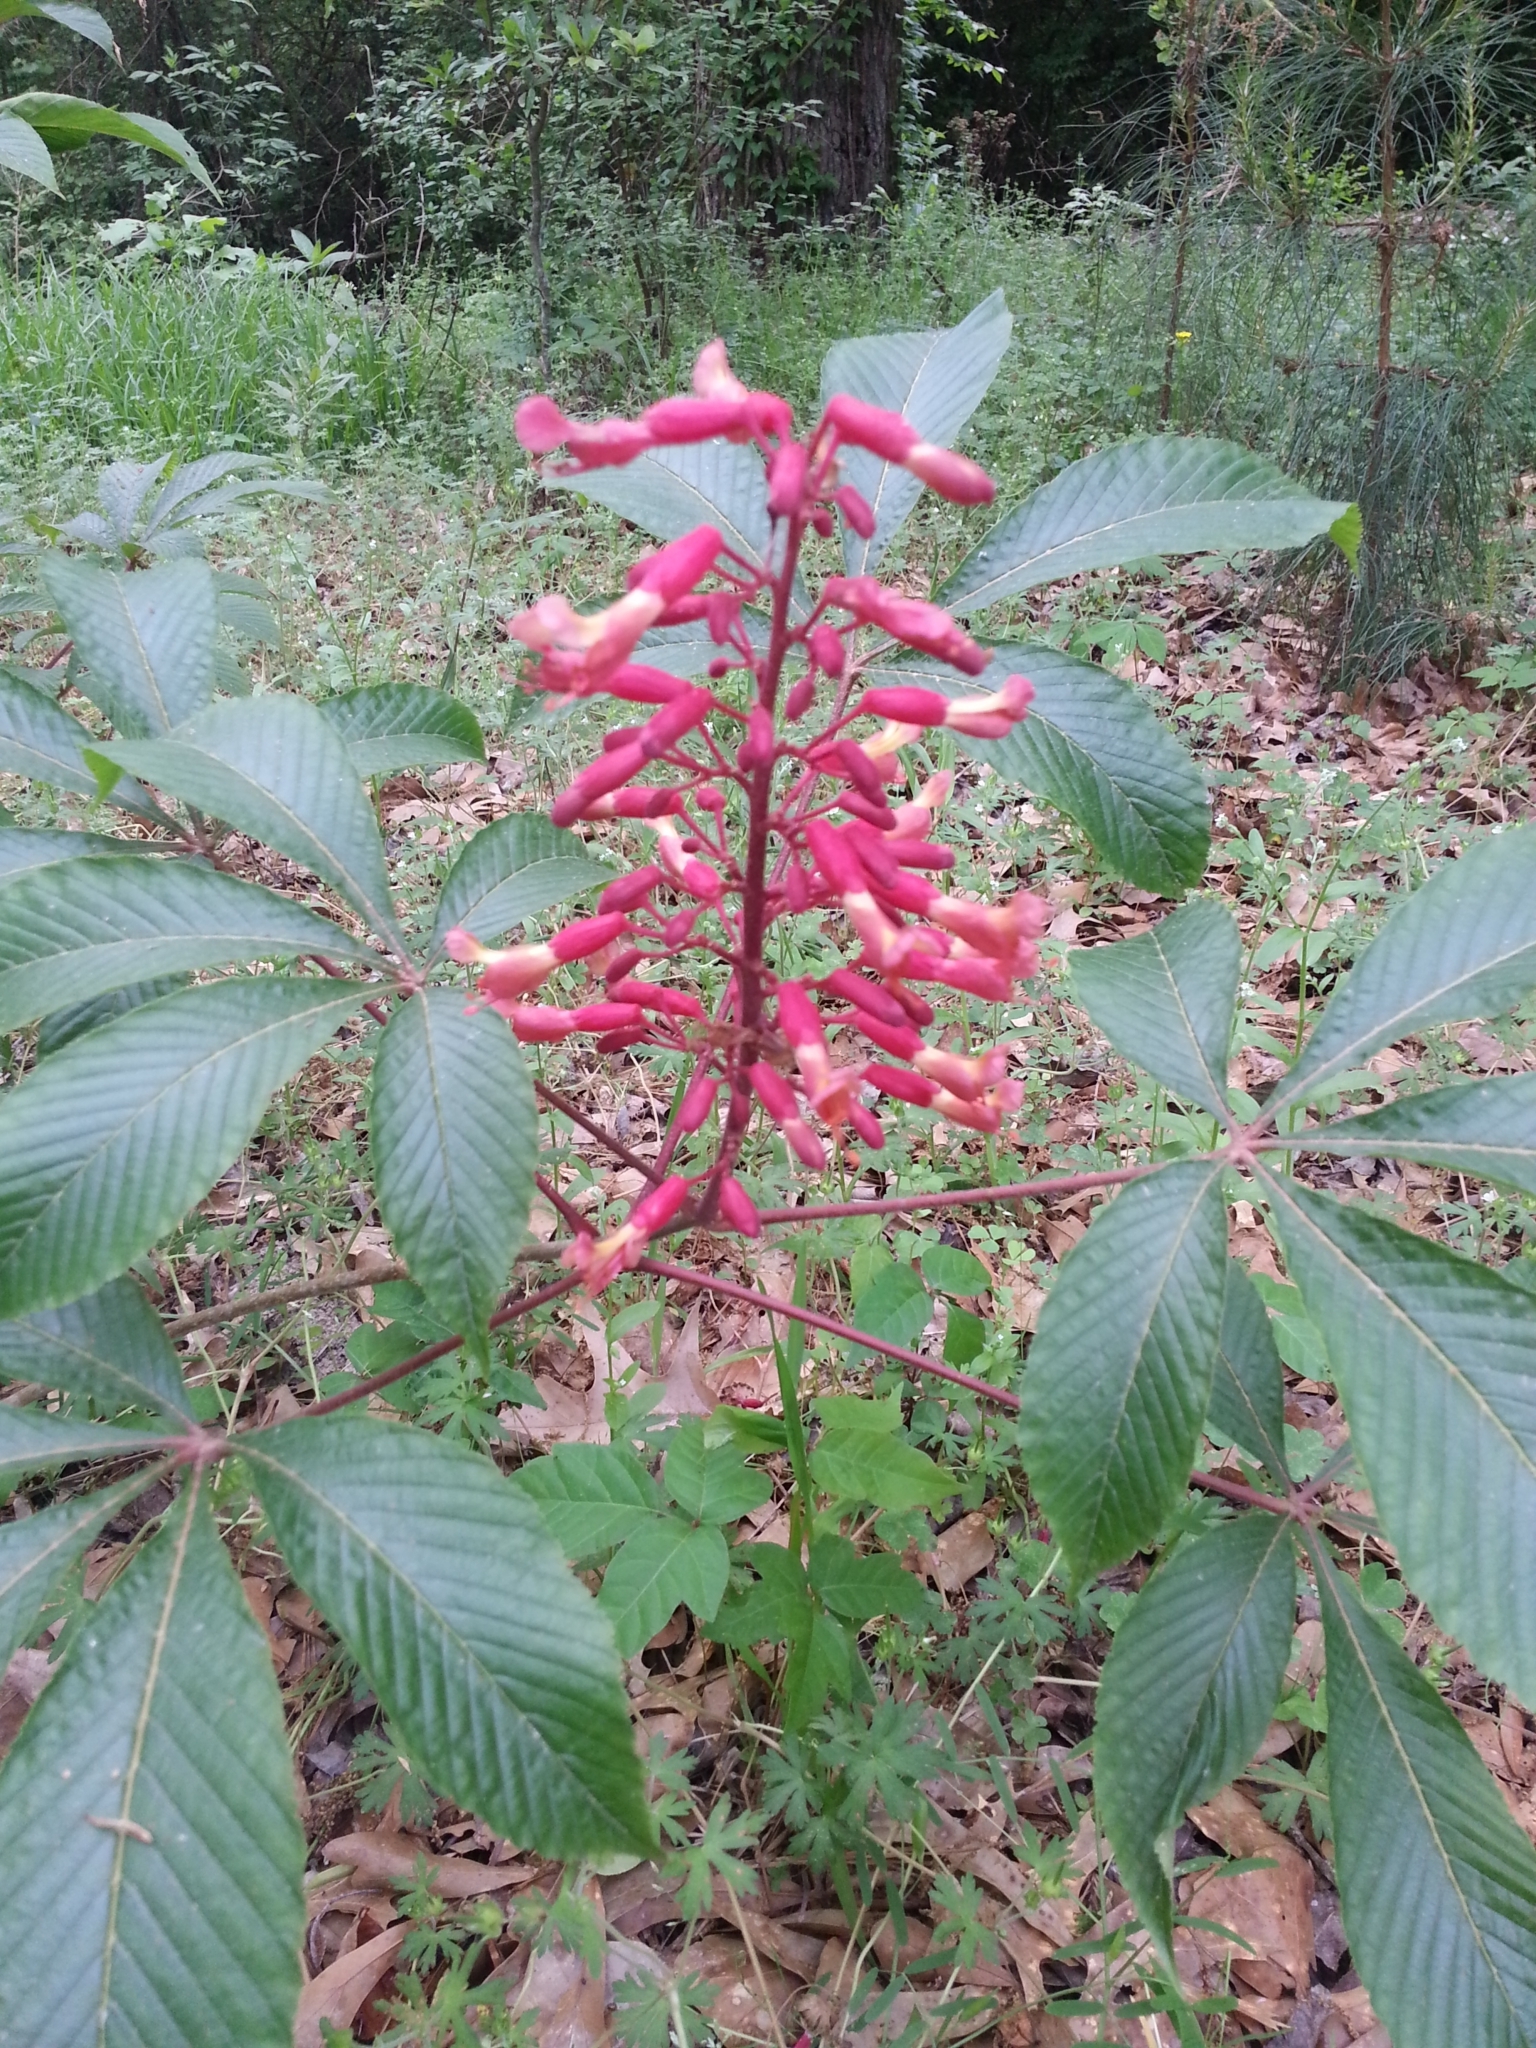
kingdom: Plantae
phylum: Tracheophyta
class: Magnoliopsida
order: Sapindales
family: Sapindaceae
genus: Aesculus
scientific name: Aesculus pavia
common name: Red buckeye
